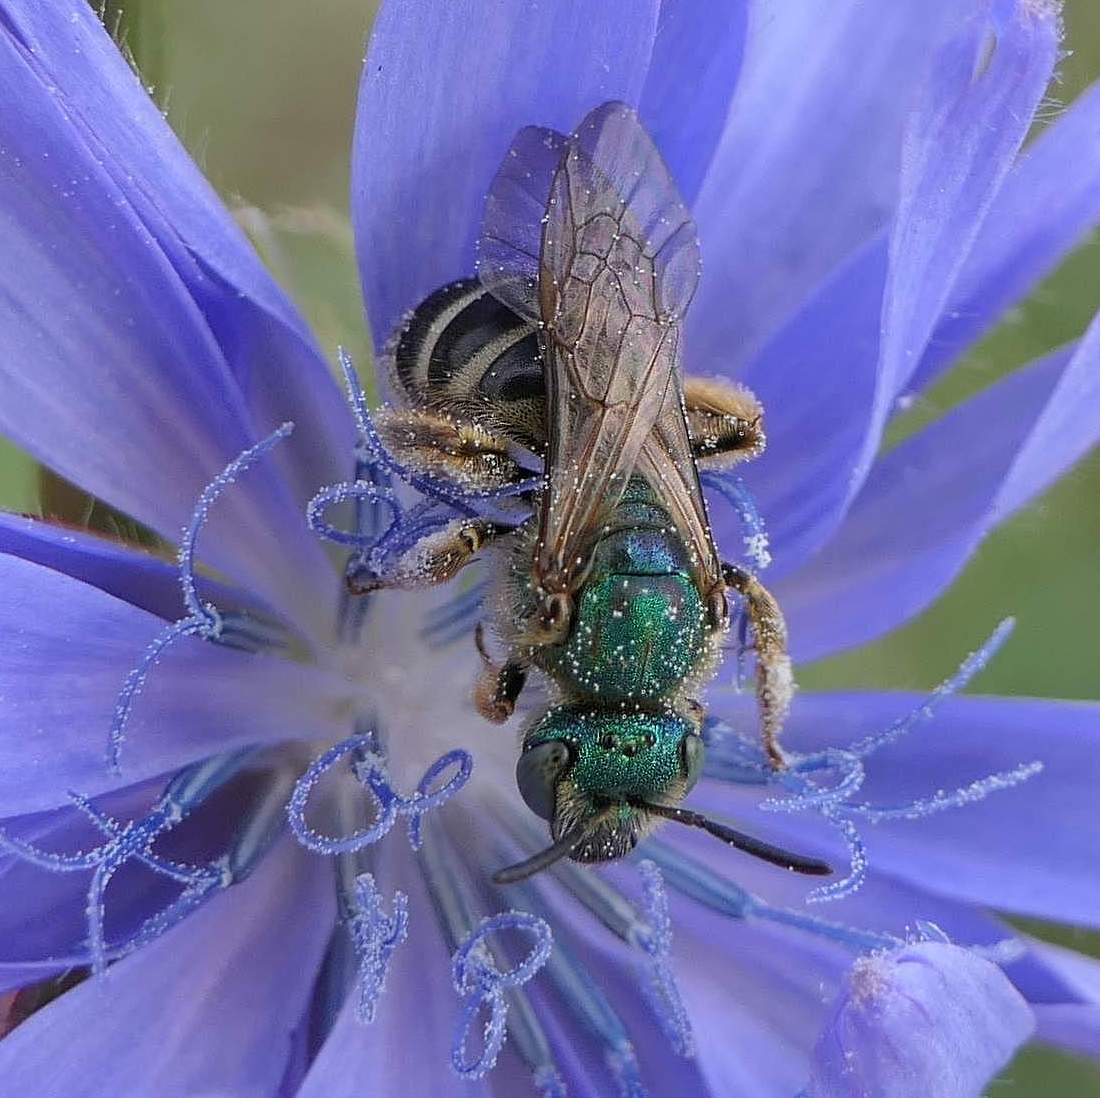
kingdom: Animalia
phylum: Arthropoda
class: Insecta
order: Hymenoptera
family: Halictidae
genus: Agapostemon
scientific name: Agapostemon virescens
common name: Bicolored striped sweat bee
